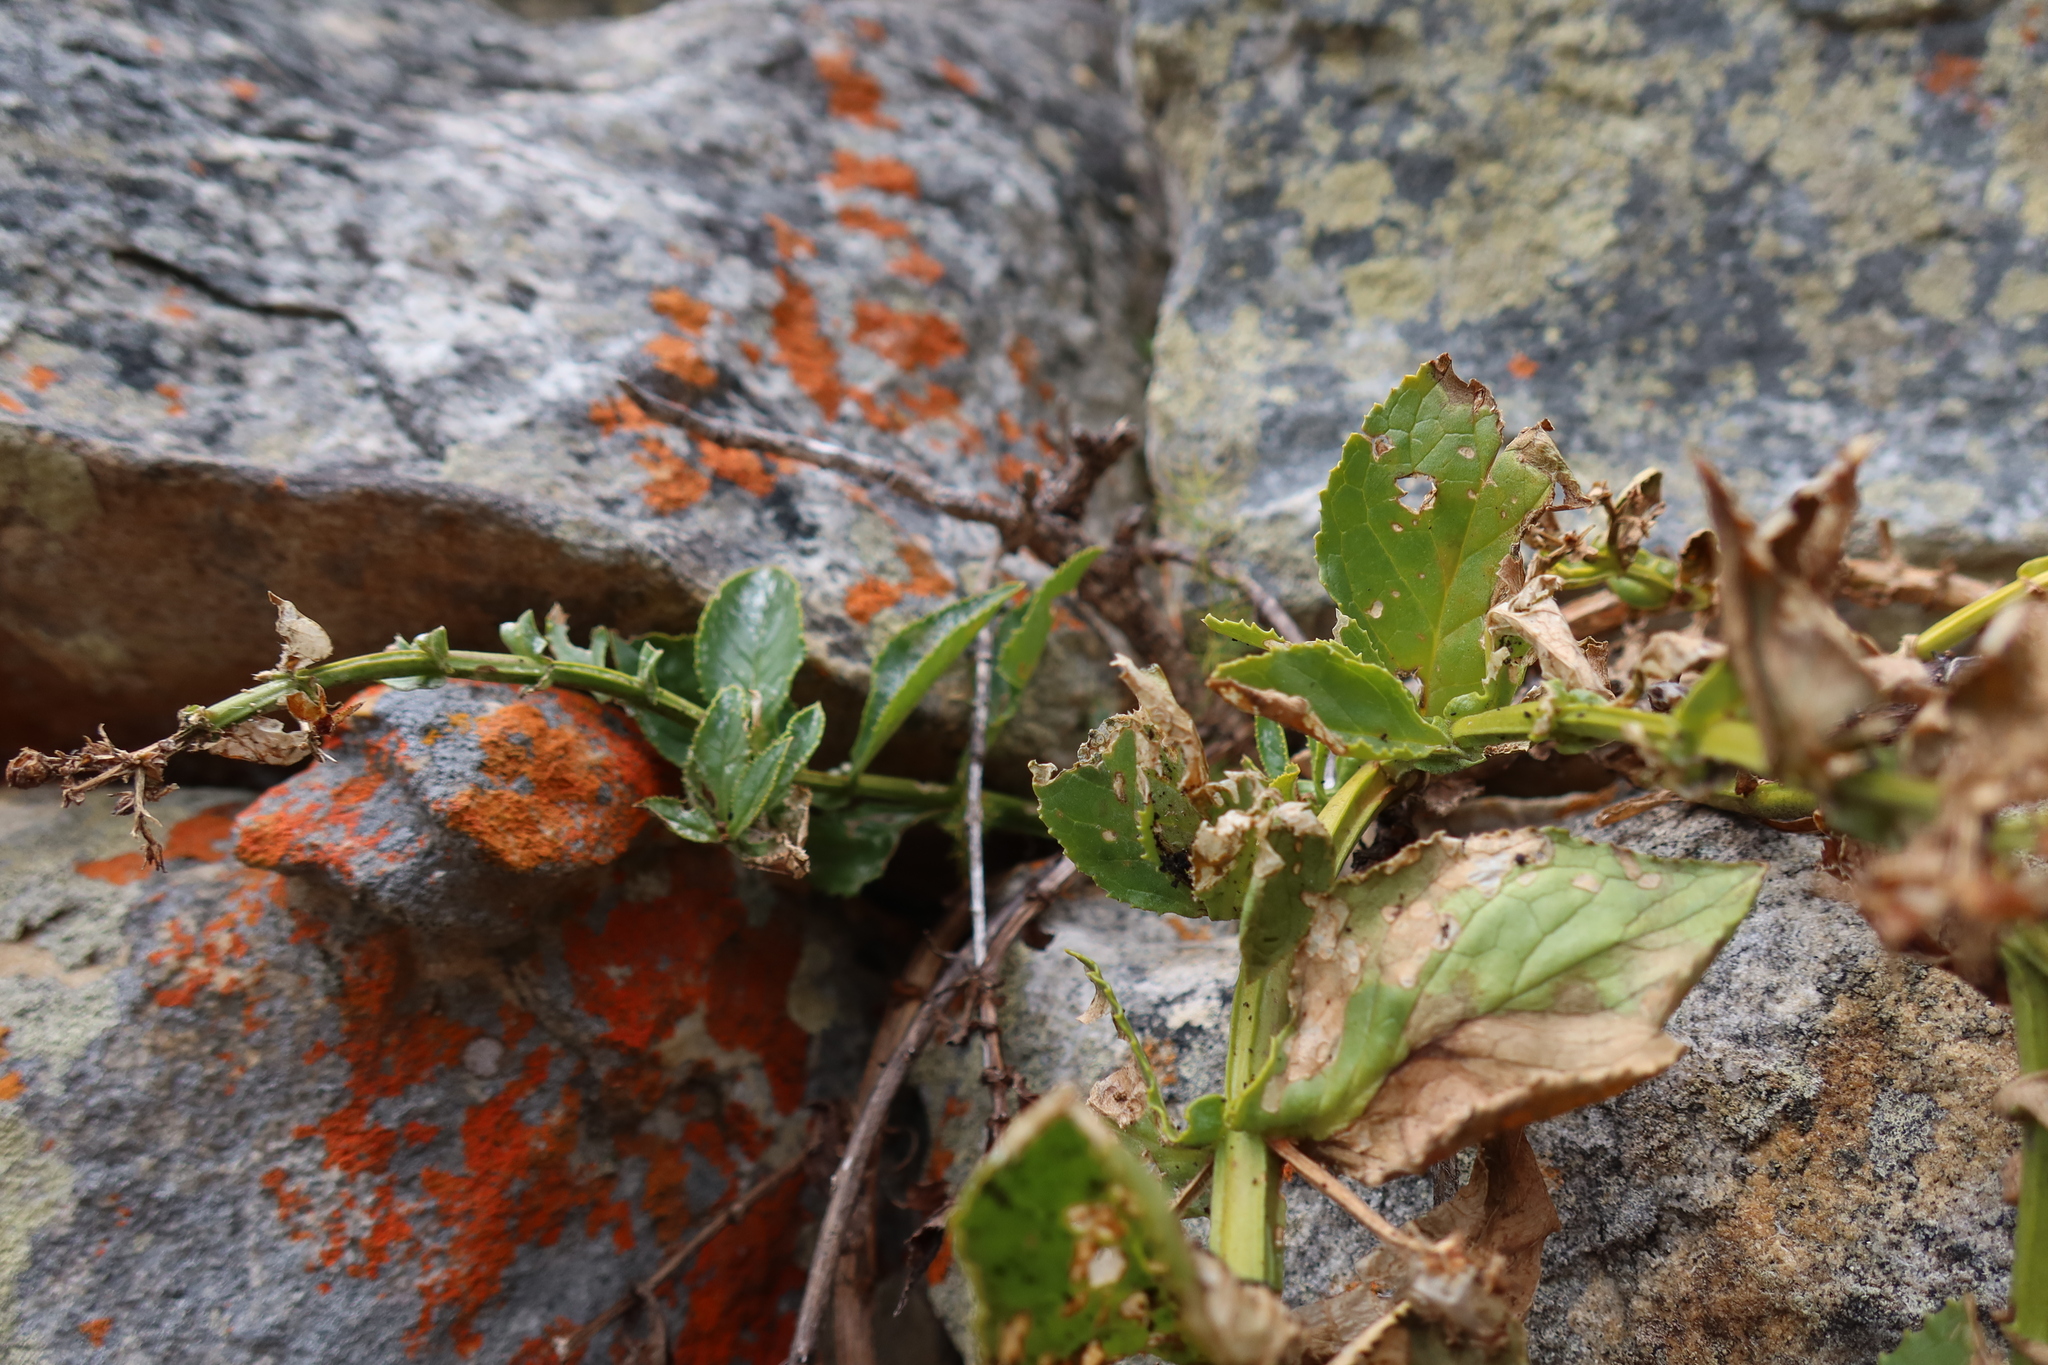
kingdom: Plantae
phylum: Tracheophyta
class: Magnoliopsida
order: Lamiales
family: Scrophulariaceae
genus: Teedia
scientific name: Teedia lucida
